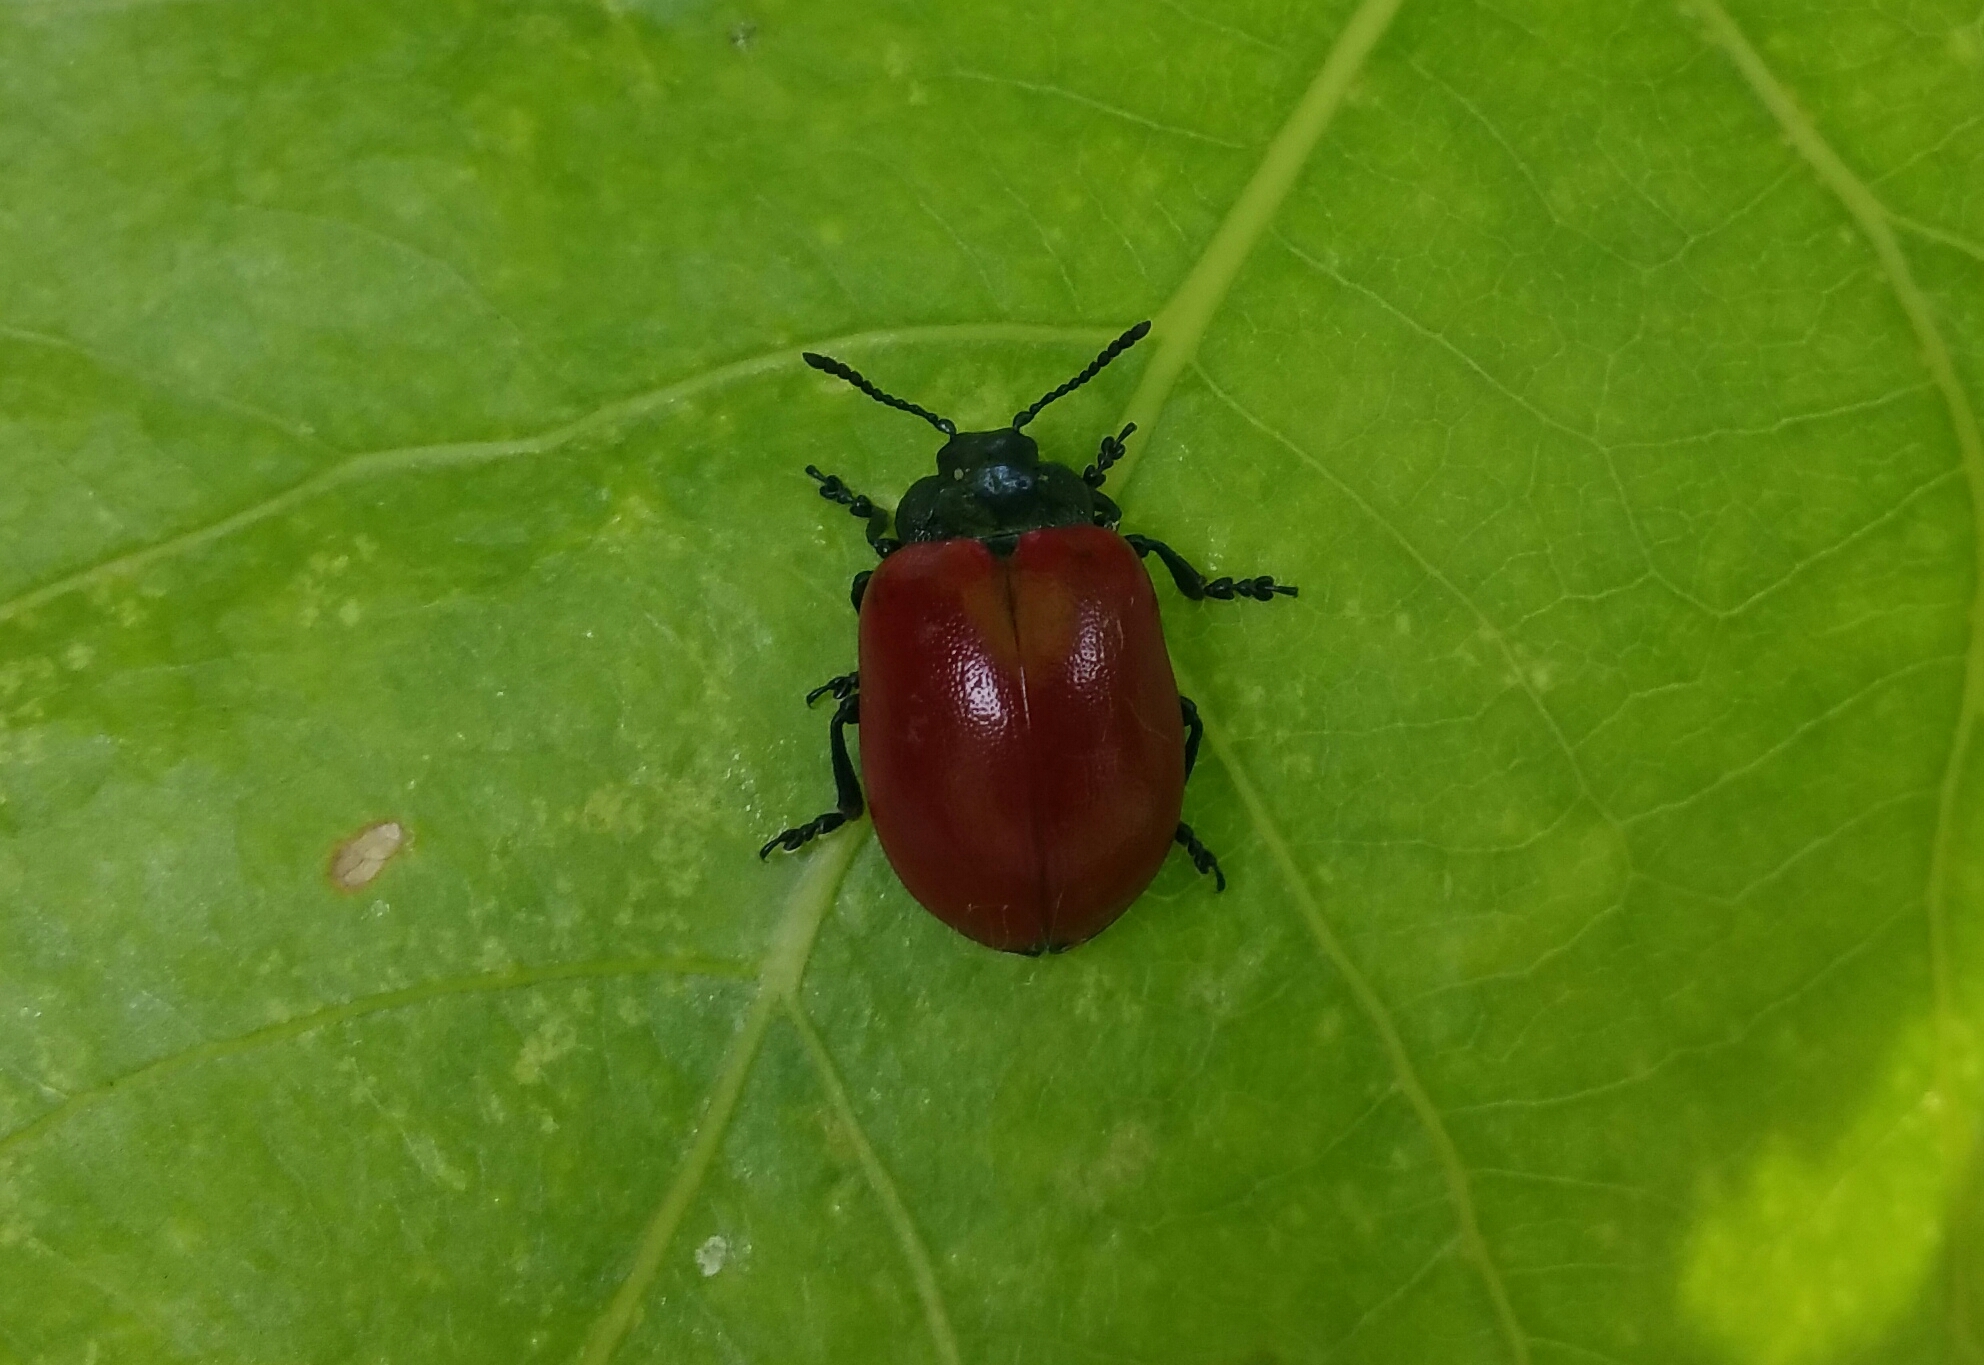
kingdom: Animalia
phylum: Arthropoda
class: Insecta
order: Coleoptera
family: Chrysomelidae
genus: Chrysomela
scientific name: Chrysomela populi
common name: Red poplar leaf beetle
